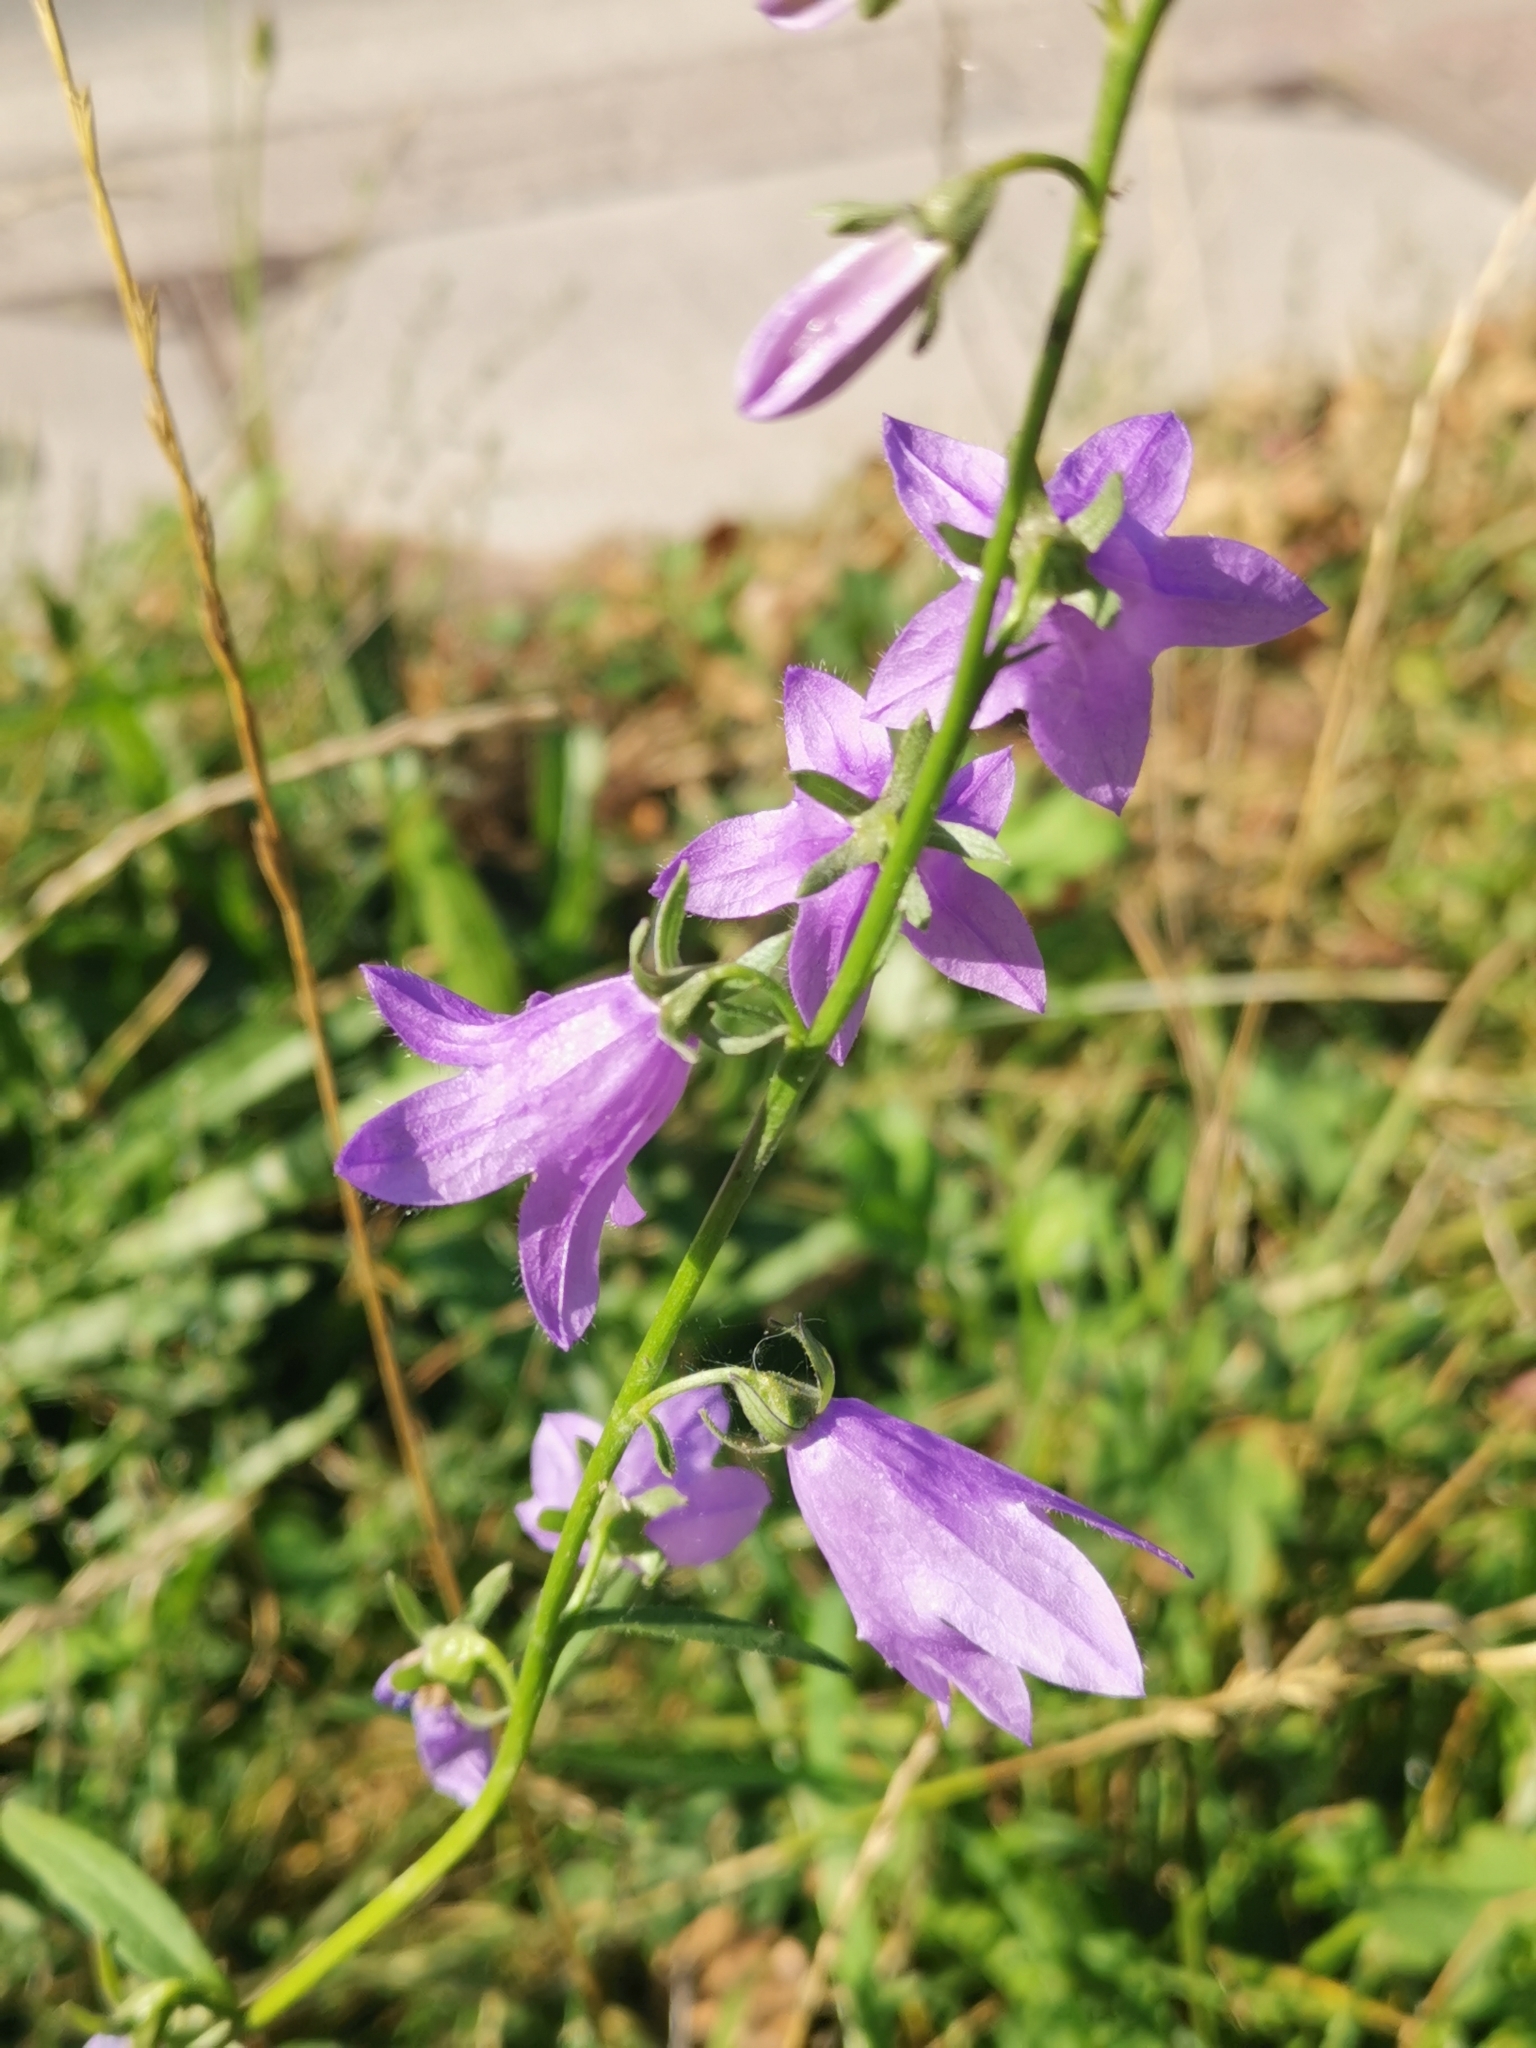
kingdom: Plantae
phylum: Tracheophyta
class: Magnoliopsida
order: Asterales
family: Campanulaceae
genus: Campanula
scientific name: Campanula rapunculoides
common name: Creeping bellflower
